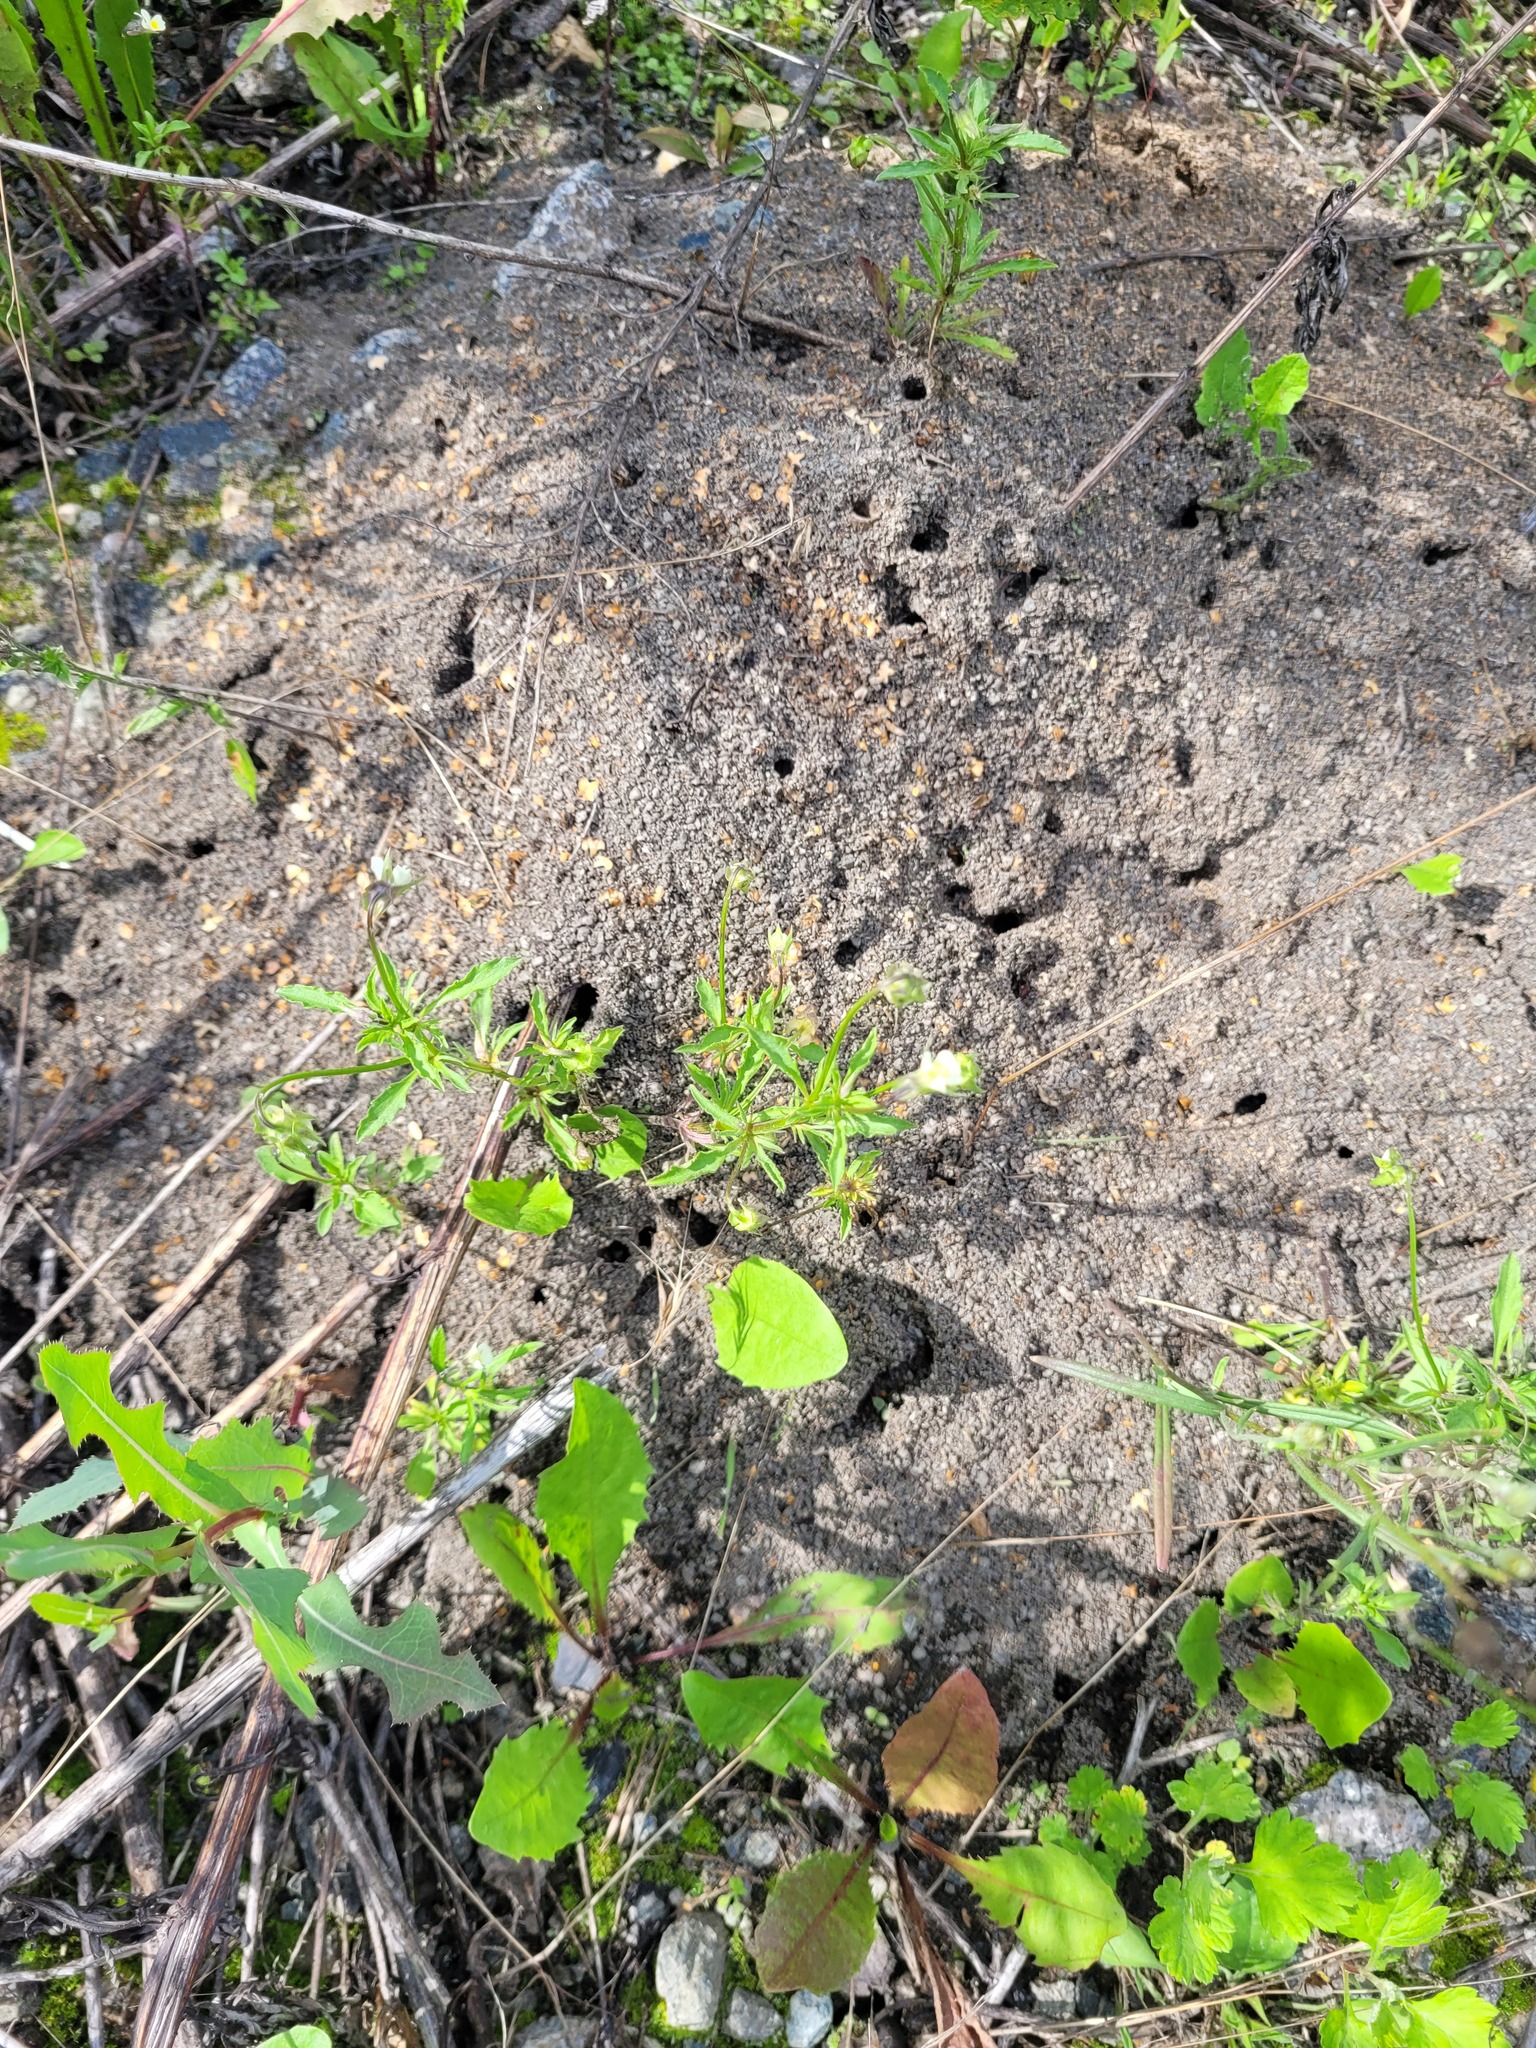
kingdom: Plantae
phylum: Tracheophyta
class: Magnoliopsida
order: Malpighiales
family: Violaceae
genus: Viola
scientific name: Viola arvensis
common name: Field pansy
